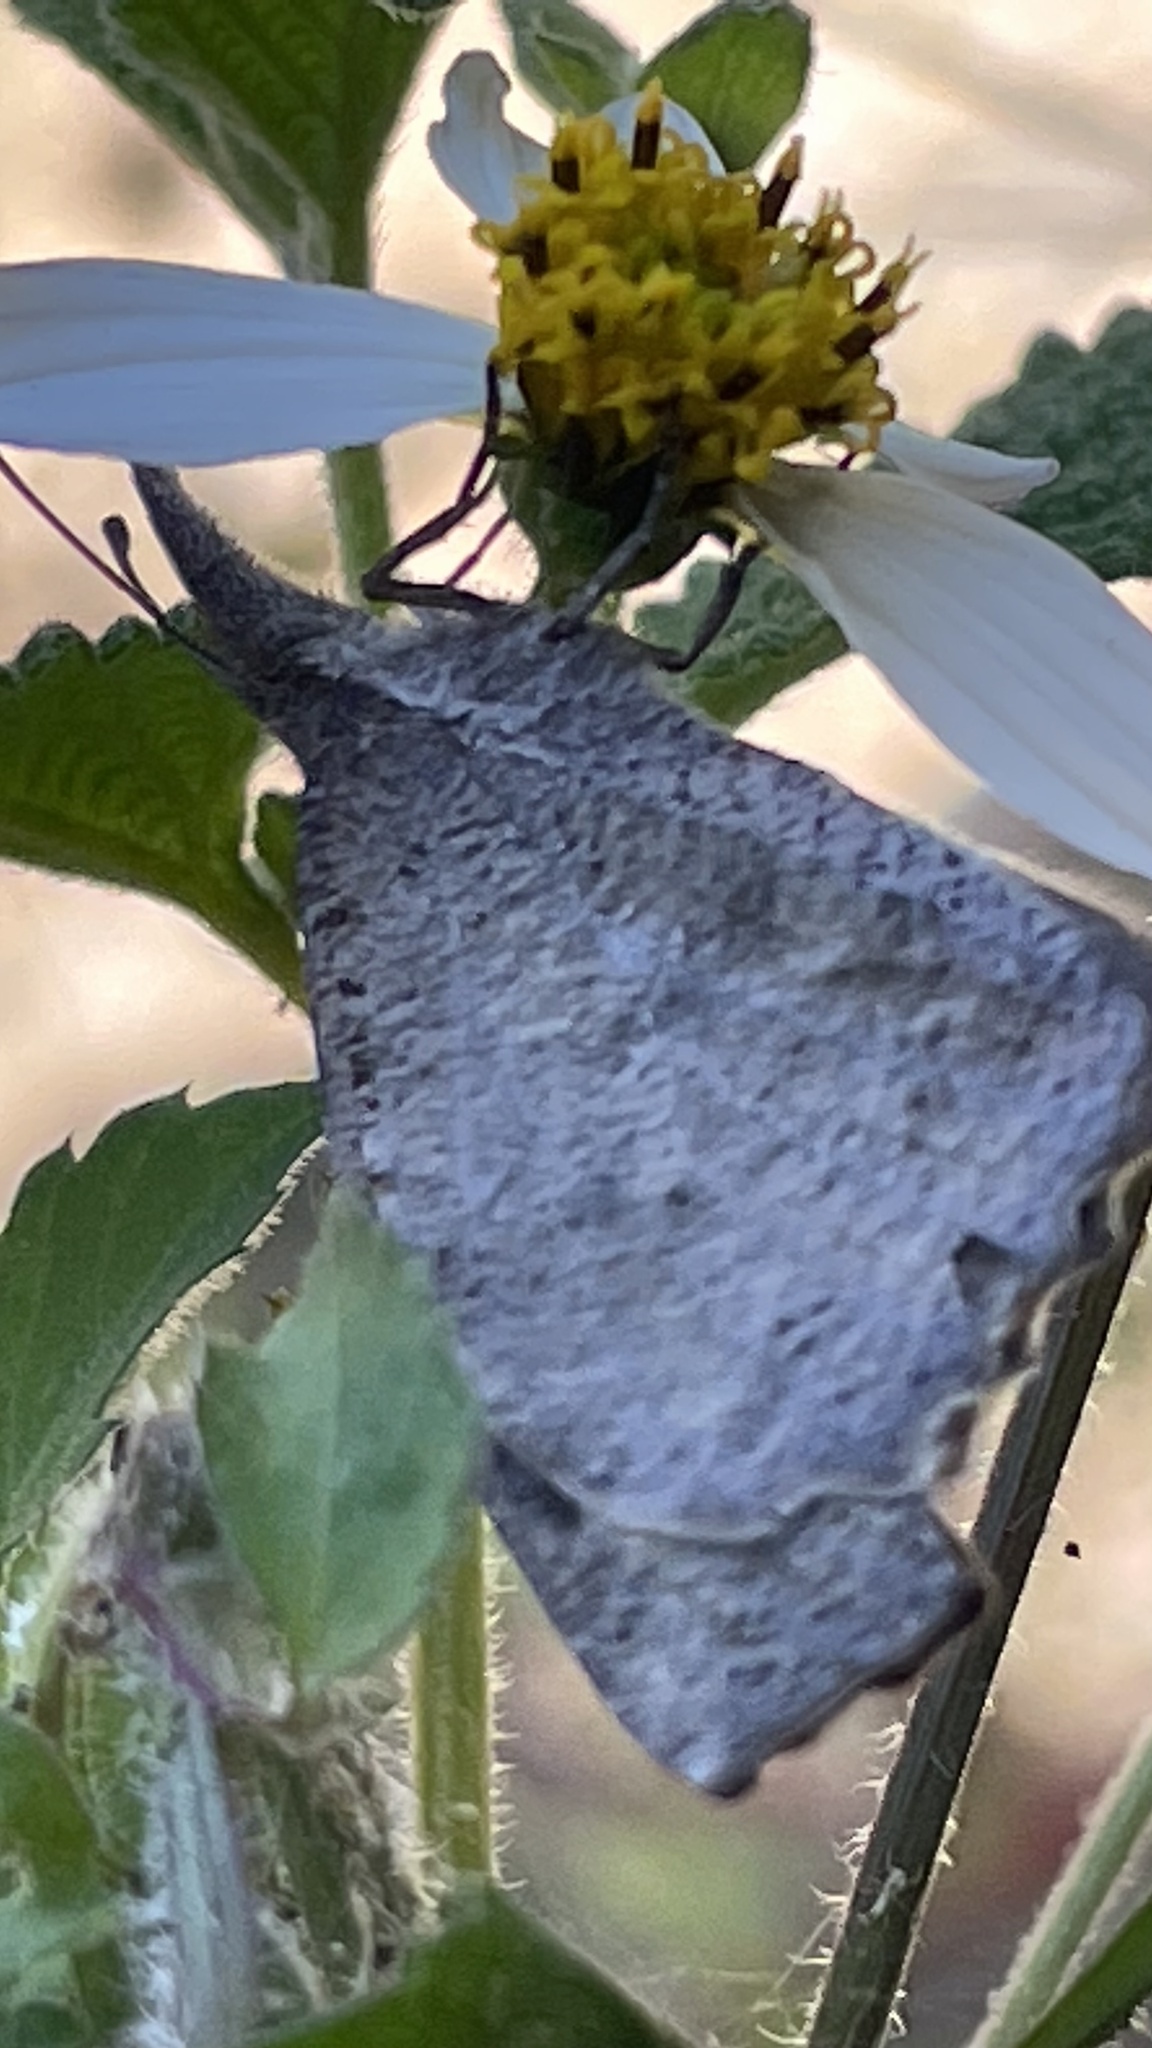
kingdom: Animalia
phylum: Arthropoda
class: Insecta
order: Lepidoptera
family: Nymphalidae
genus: Libytheana
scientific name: Libytheana carinenta
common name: American snout
